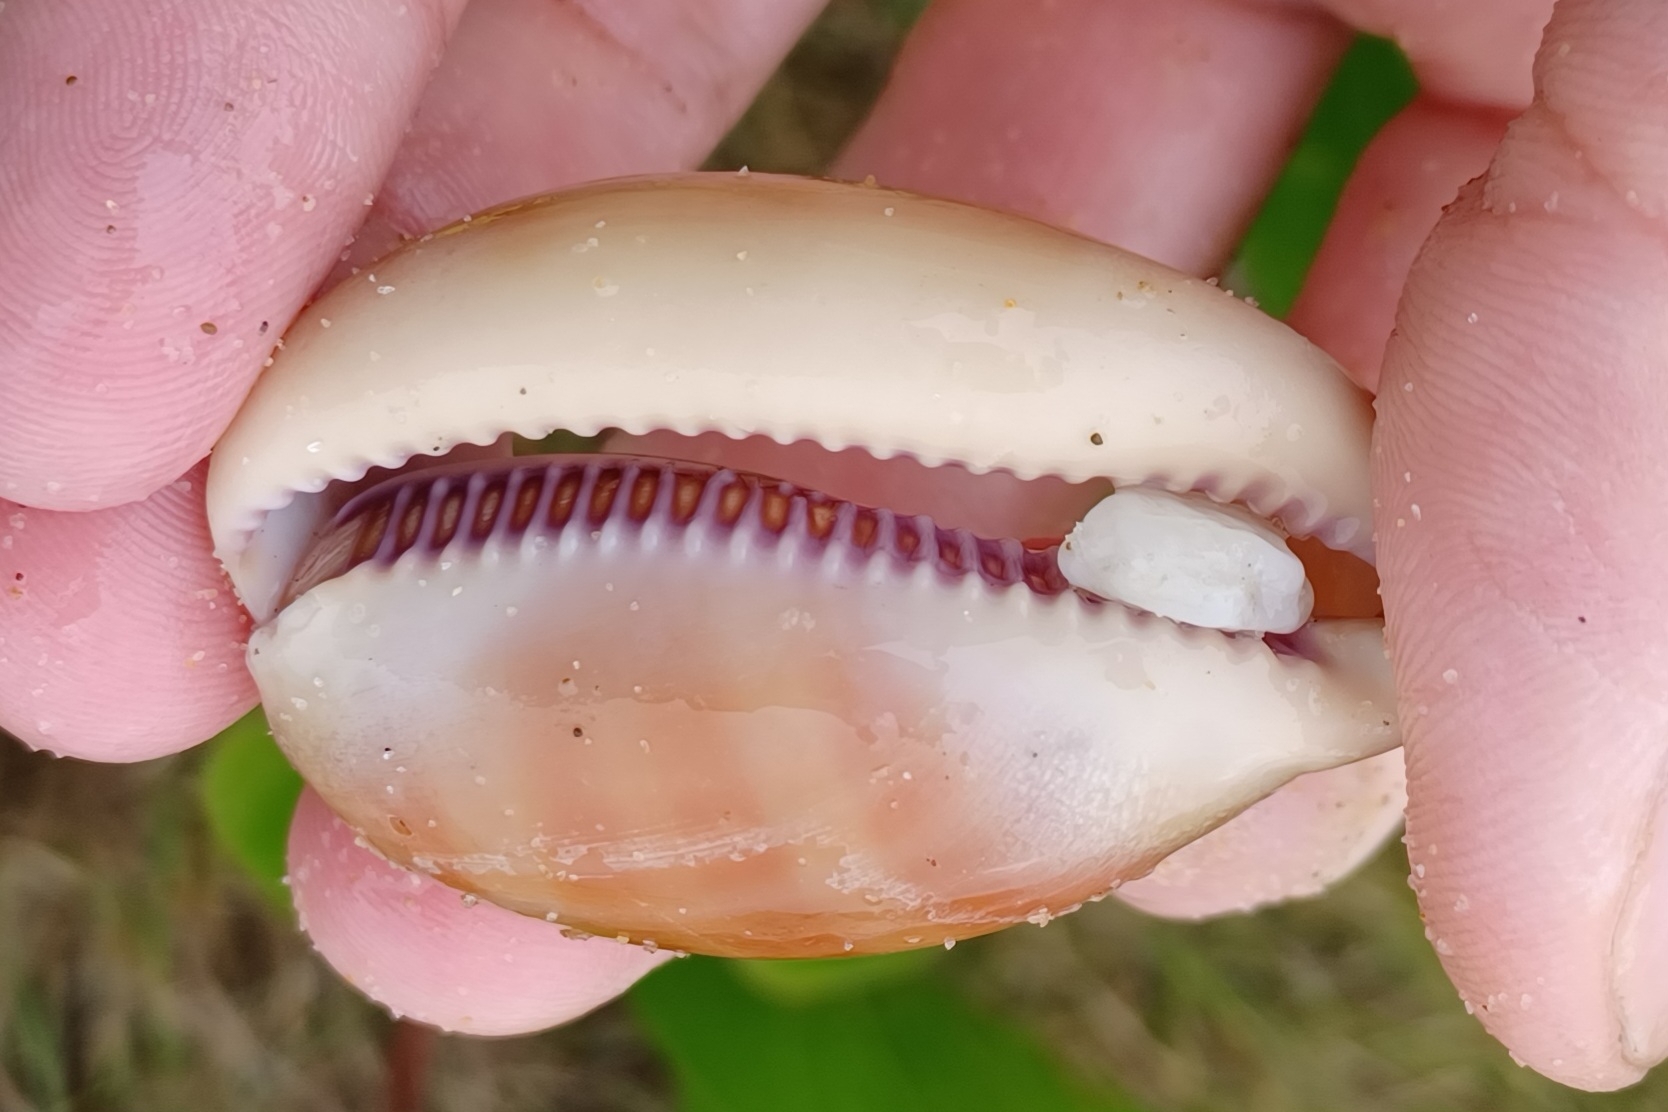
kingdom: Animalia
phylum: Mollusca
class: Gastropoda
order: Littorinimorpha
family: Cypraeidae
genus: Lyncina
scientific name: Lyncina carneola
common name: Purple-mouthed cowry
